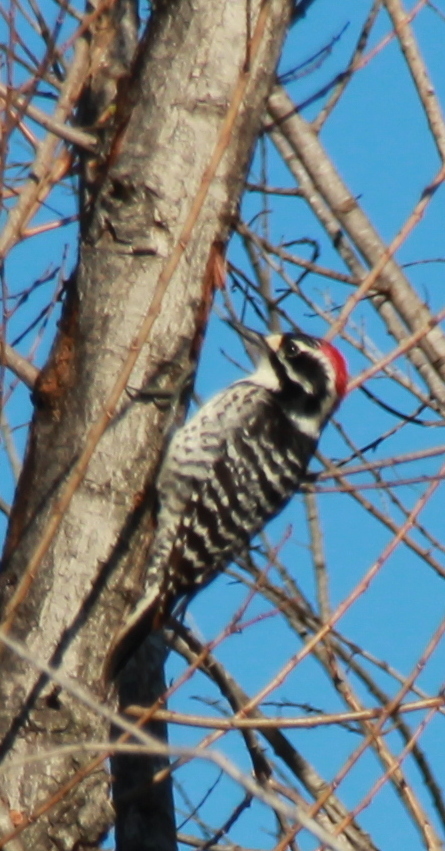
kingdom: Animalia
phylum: Chordata
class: Aves
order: Piciformes
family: Picidae
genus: Dryobates
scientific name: Dryobates nuttallii
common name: Nuttall's woodpecker
